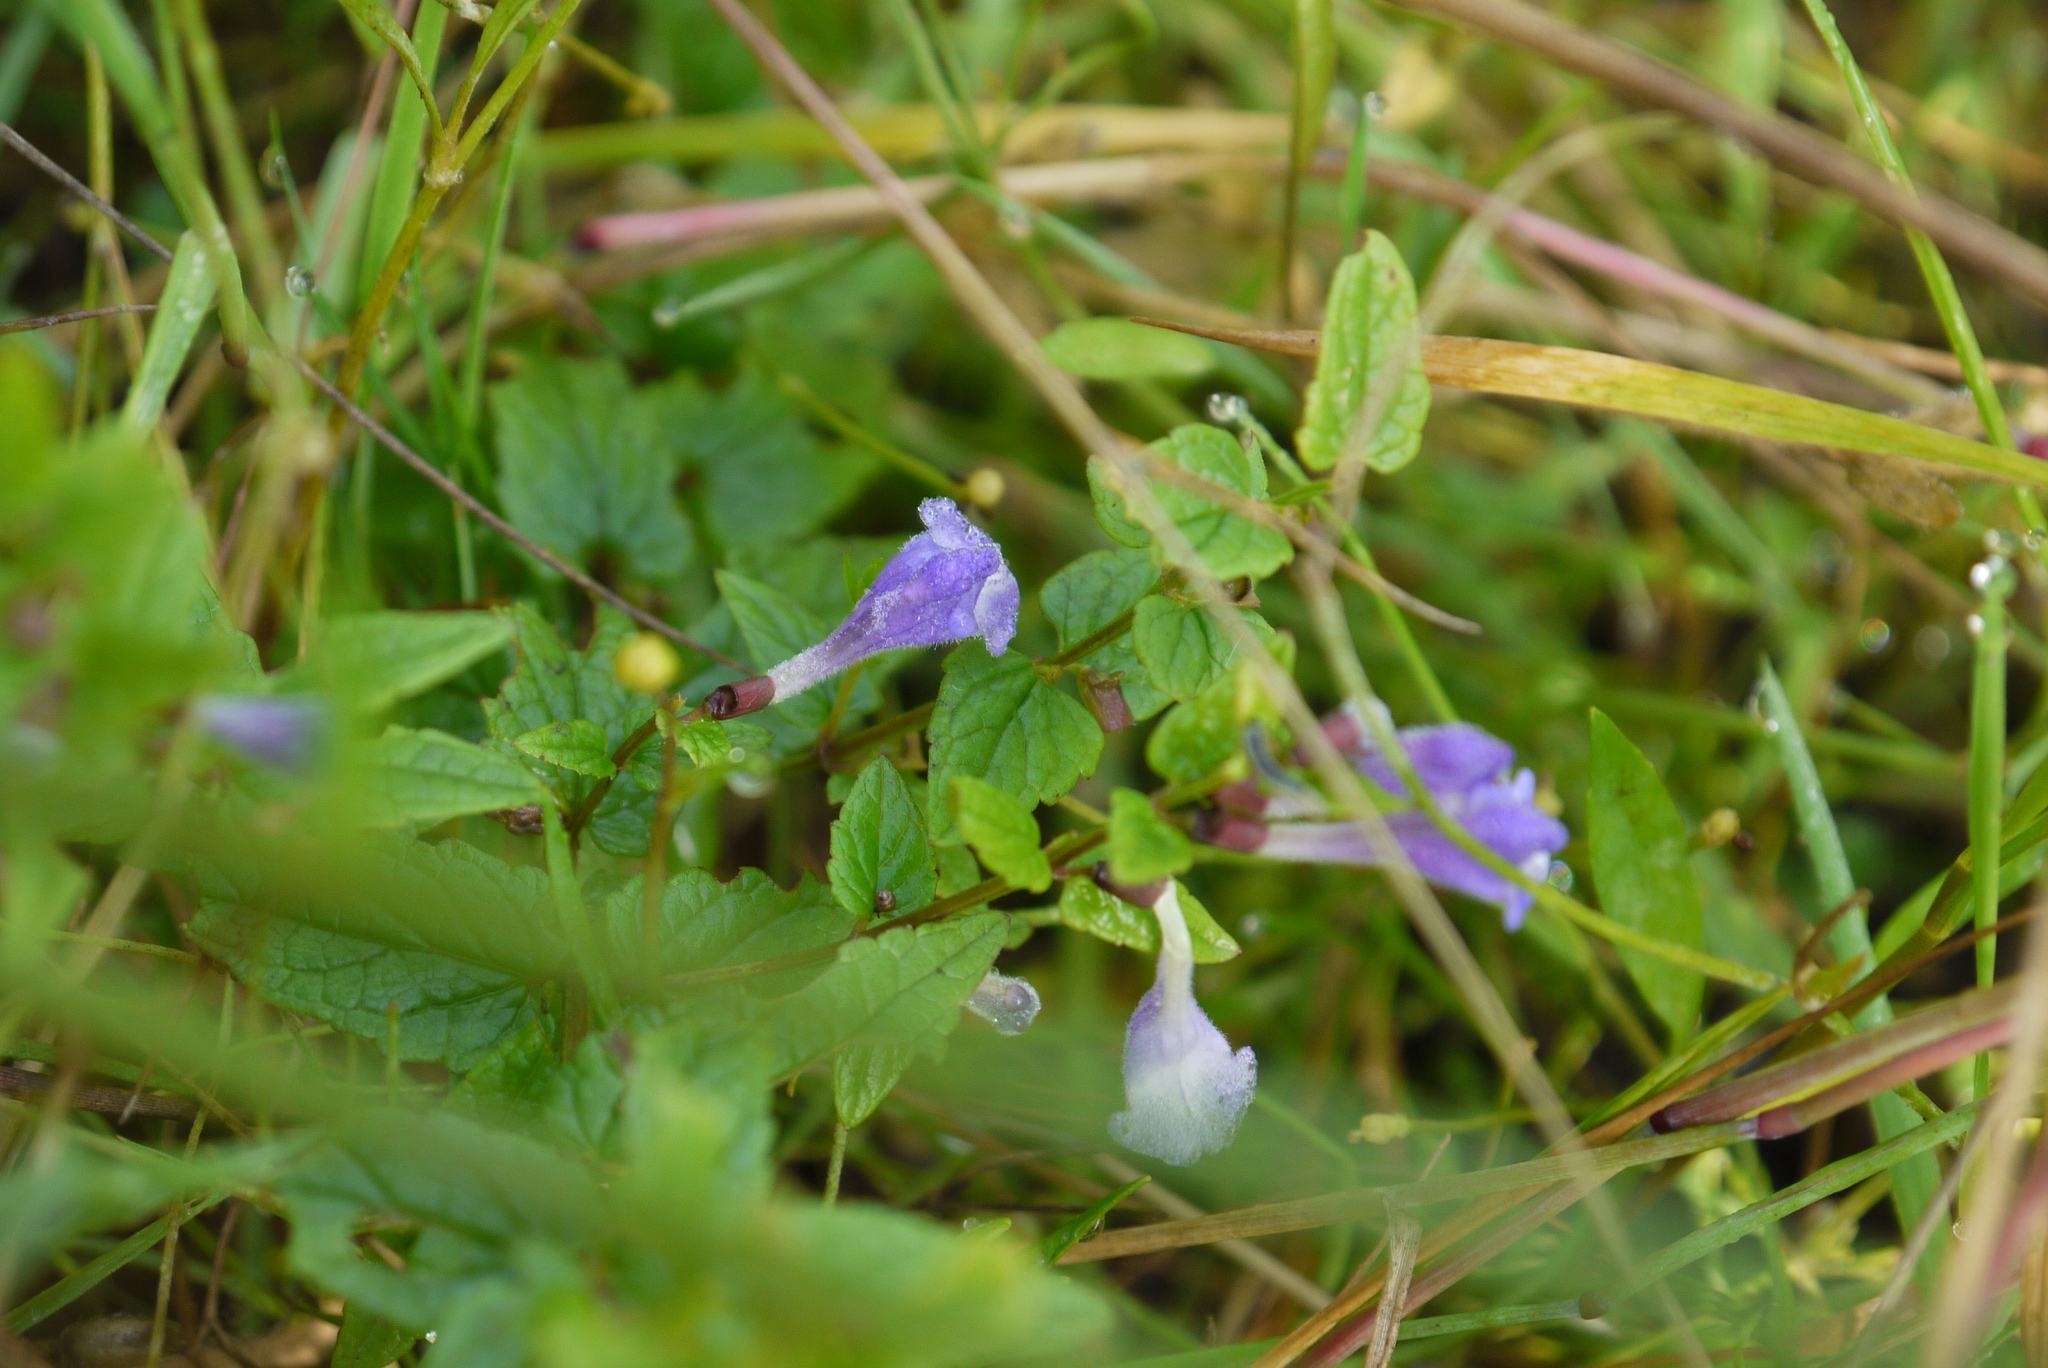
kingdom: Plantae
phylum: Tracheophyta
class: Magnoliopsida
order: Lamiales
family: Lamiaceae
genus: Scutellaria
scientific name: Scutellaria galericulata
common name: Skullcap
